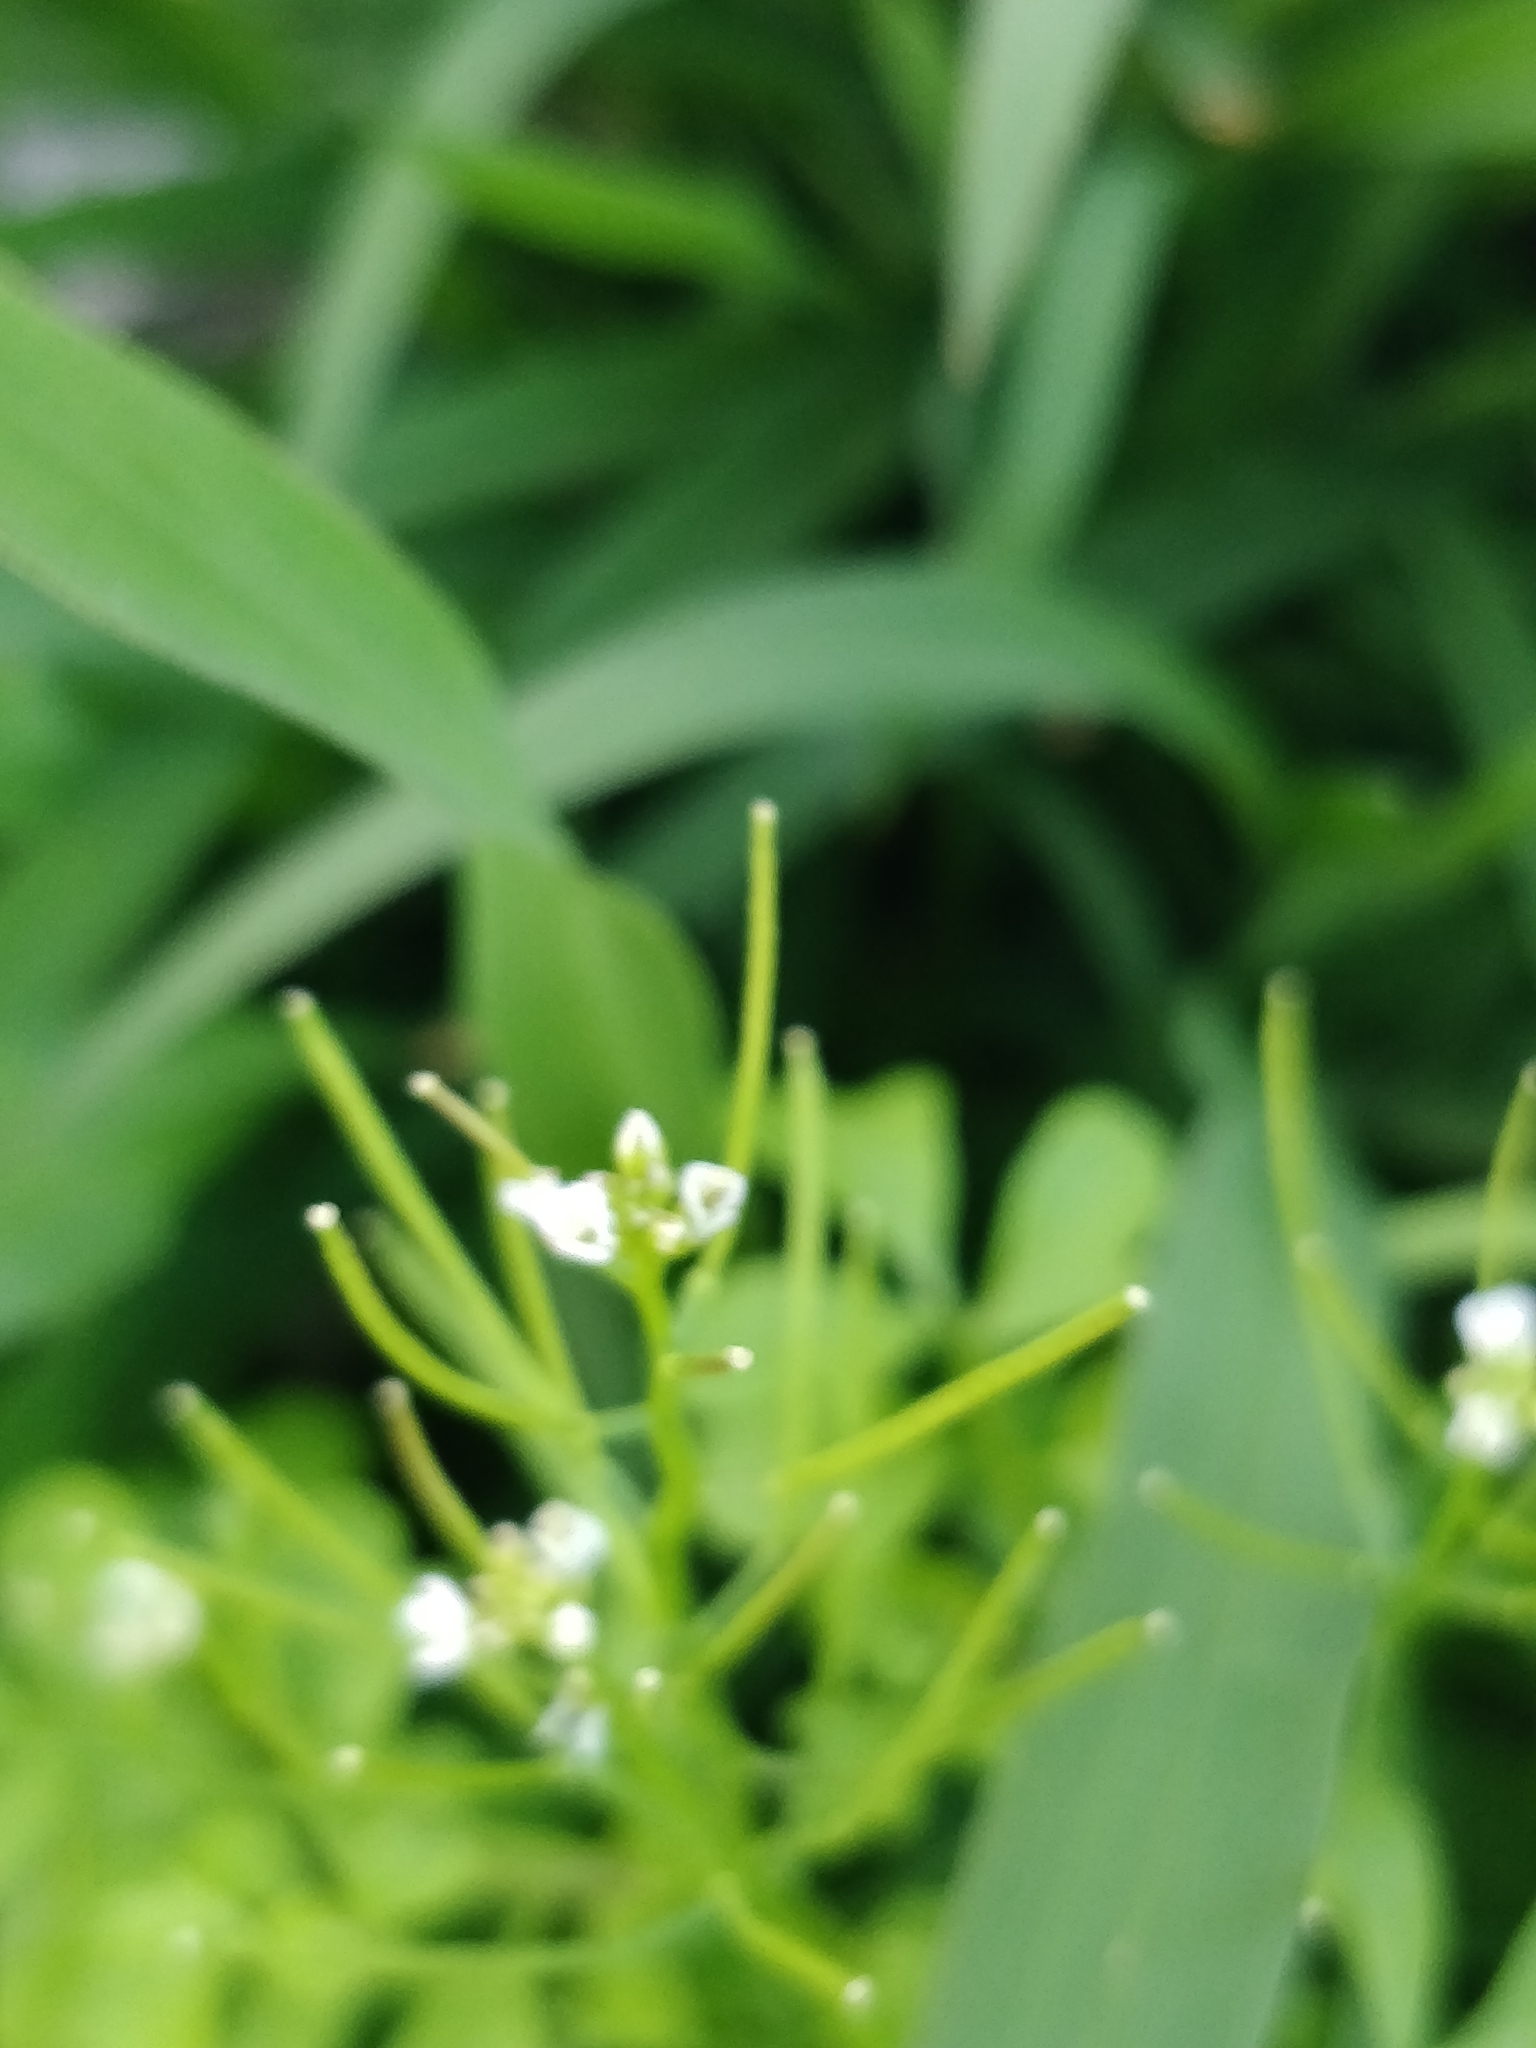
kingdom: Plantae
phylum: Tracheophyta
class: Magnoliopsida
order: Brassicales
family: Brassicaceae
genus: Cardamine
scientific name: Cardamine hirsuta
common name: Hairy bittercress
